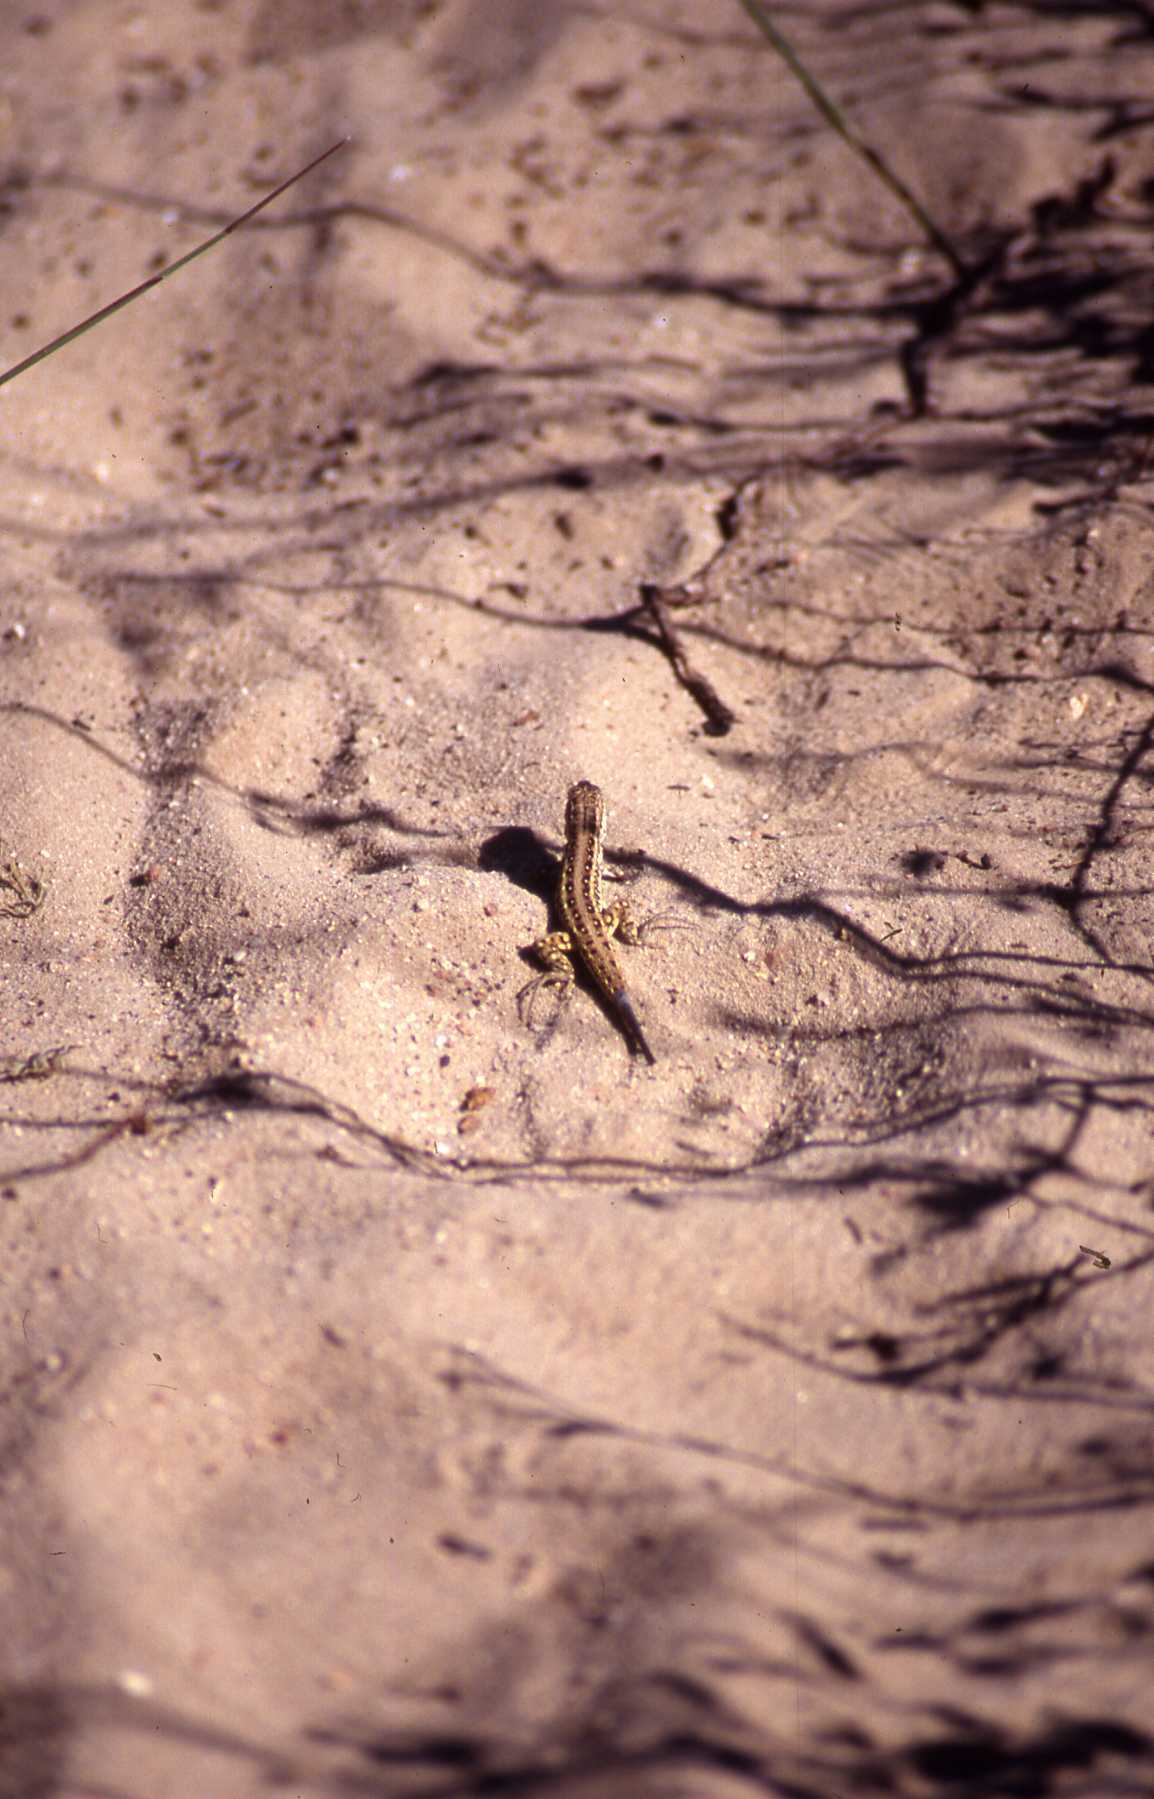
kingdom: Animalia
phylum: Chordata
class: Squamata
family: Lacertidae
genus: Meroles
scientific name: Meroles knoxii
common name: Knox's desert lizard
